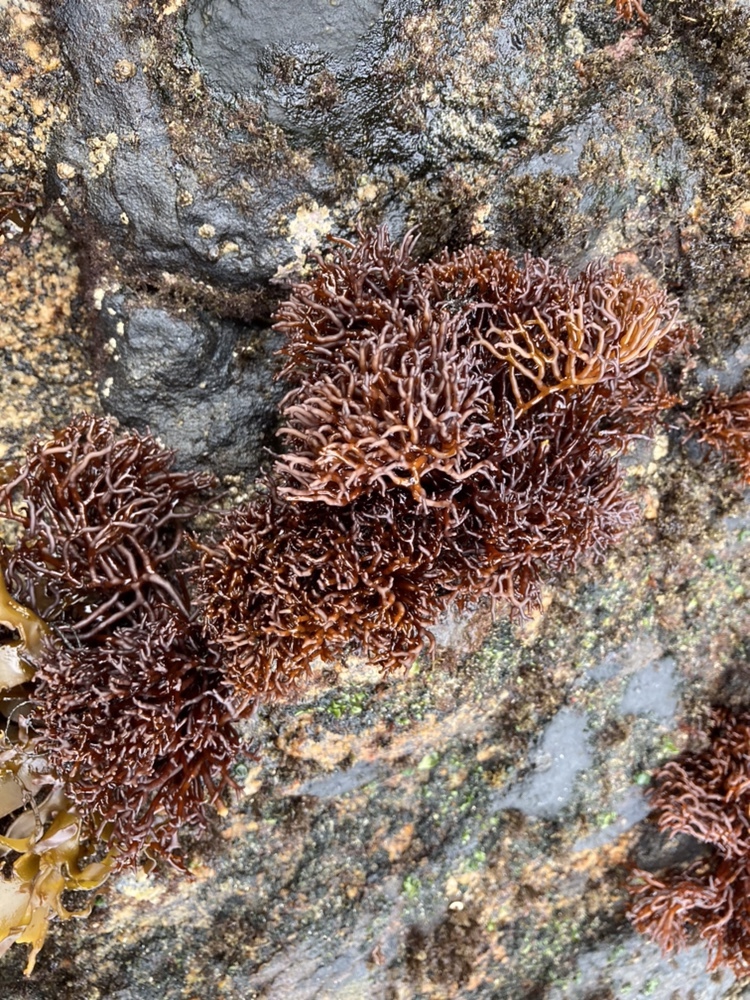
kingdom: Plantae
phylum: Rhodophyta
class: Florideophyceae
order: Hildenbrandiales
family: Hildenbrandiaceae
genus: Apophlaea
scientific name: Apophlaea lyallii
